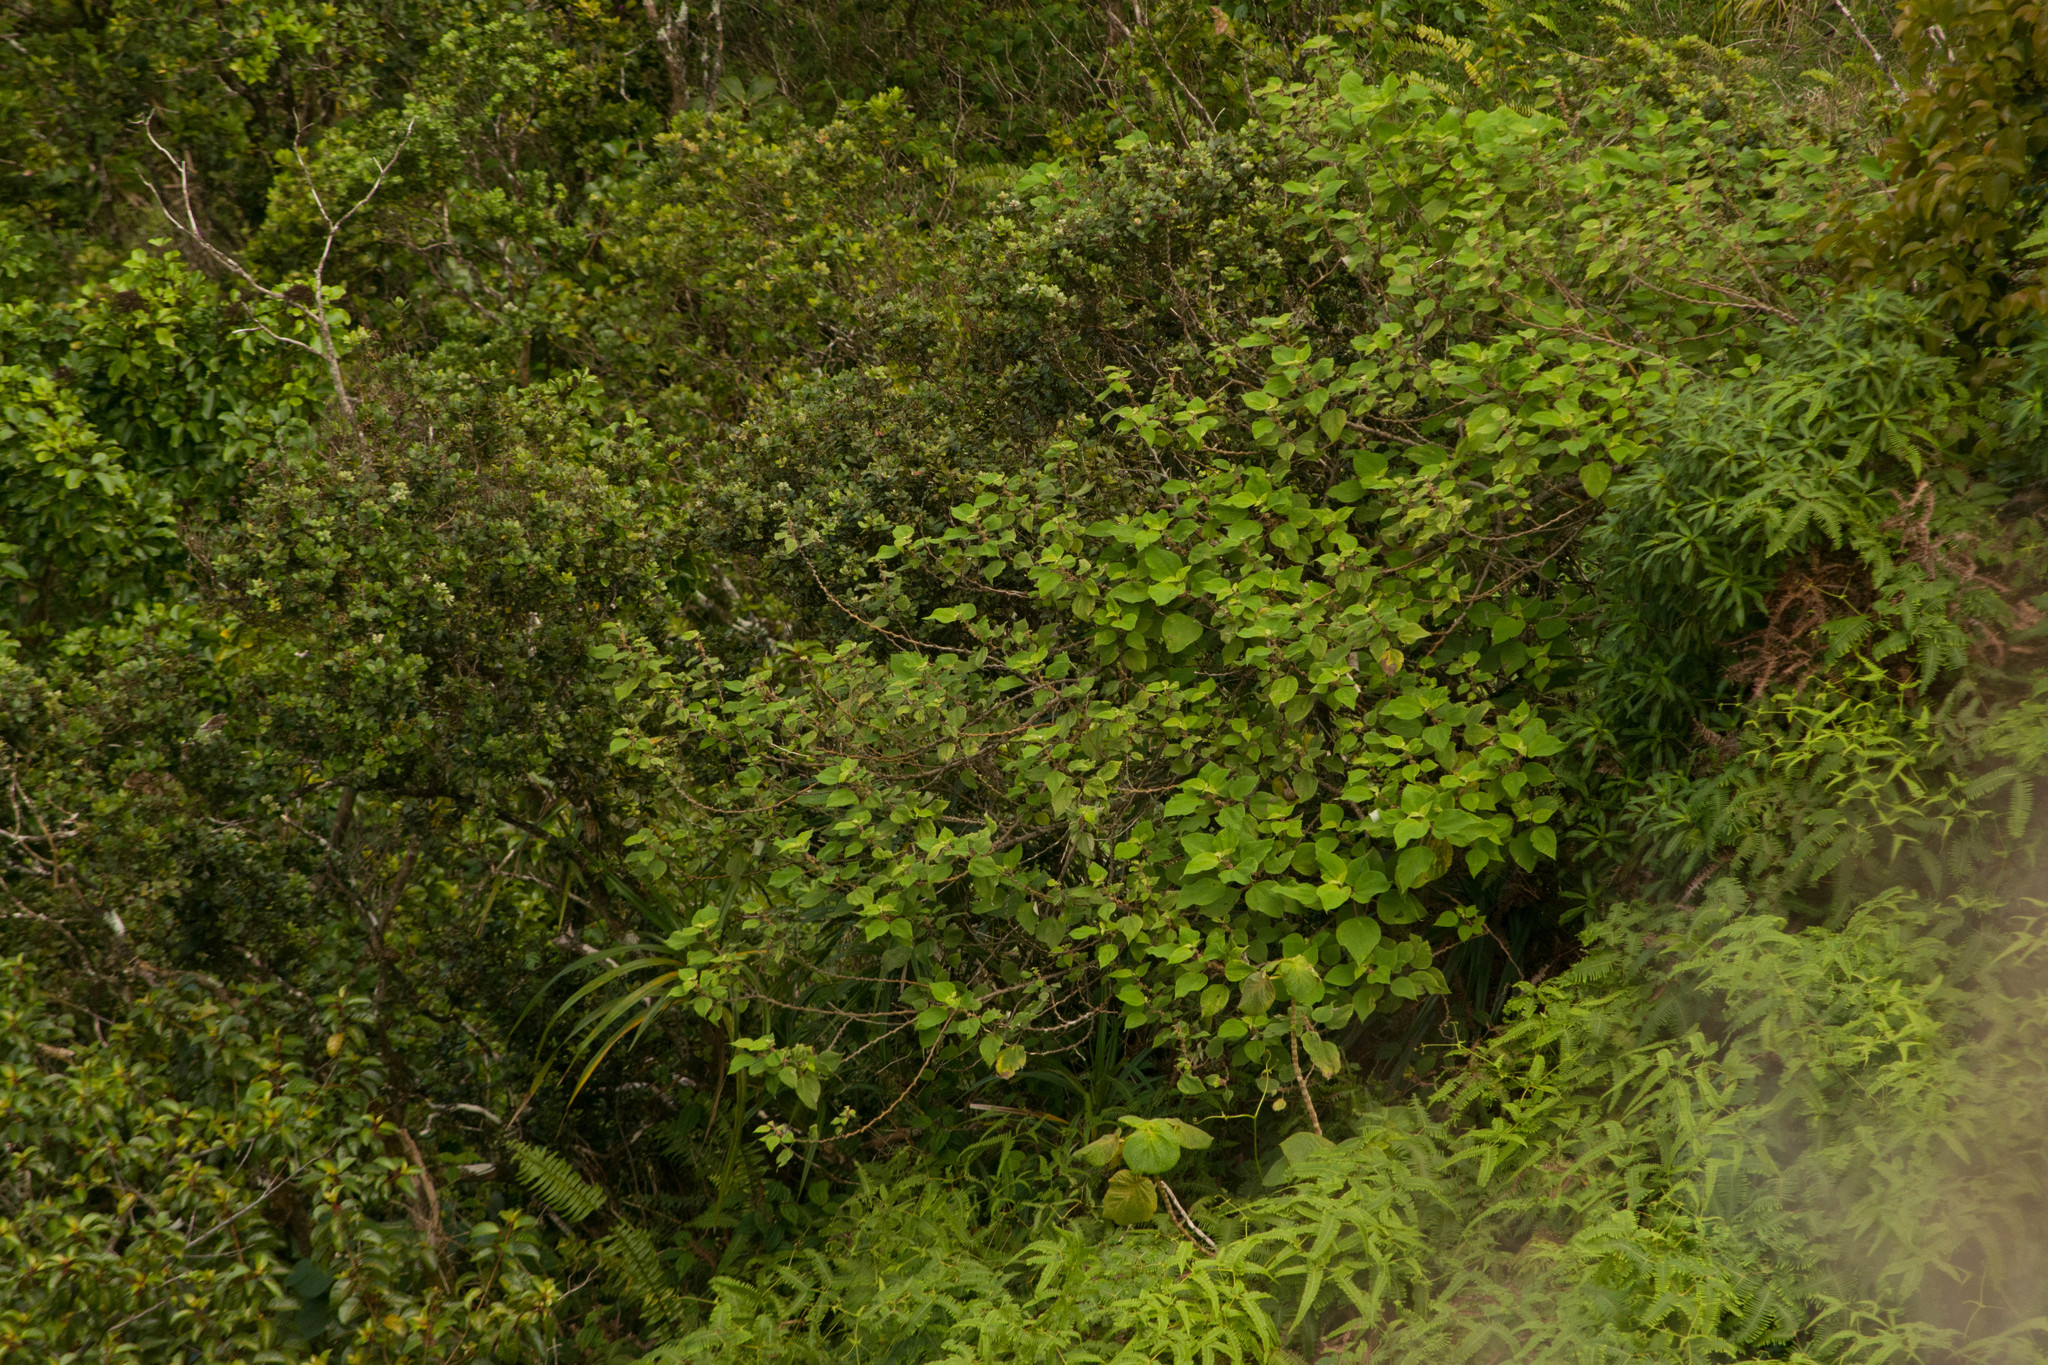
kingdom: Plantae
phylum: Tracheophyta
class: Magnoliopsida
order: Rosales
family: Urticaceae
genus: Pipturus
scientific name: Pipturus albidus
